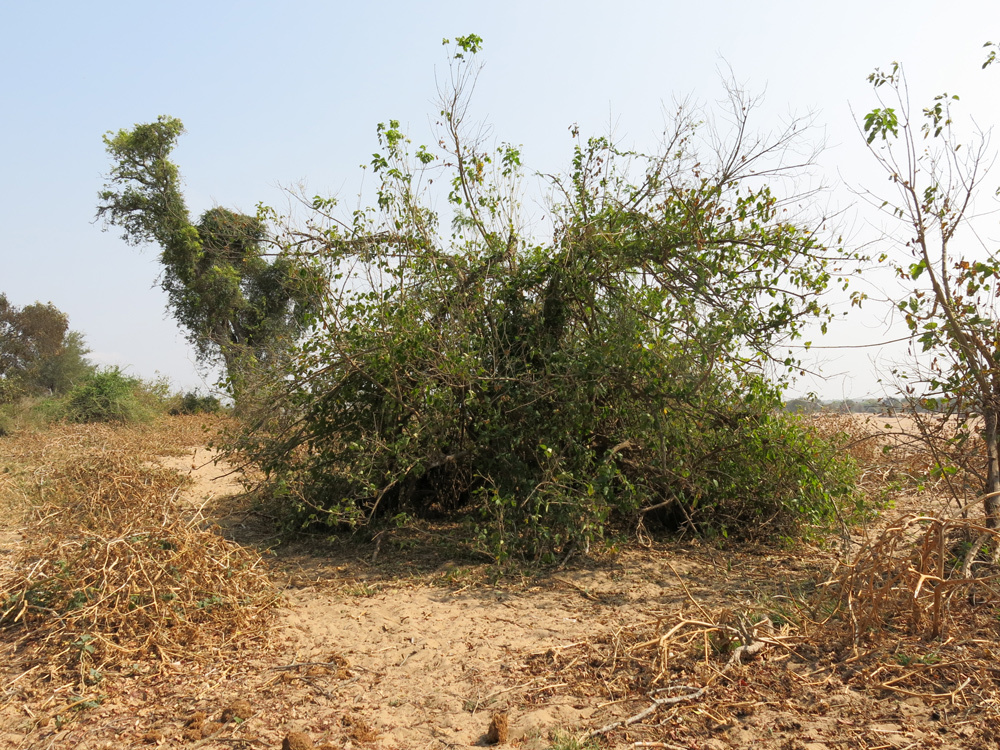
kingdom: Plantae
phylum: Tracheophyta
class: Magnoliopsida
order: Malpighiales
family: Euphorbiaceae
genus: Croton
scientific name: Croton megalobotrys
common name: Large fever berry
